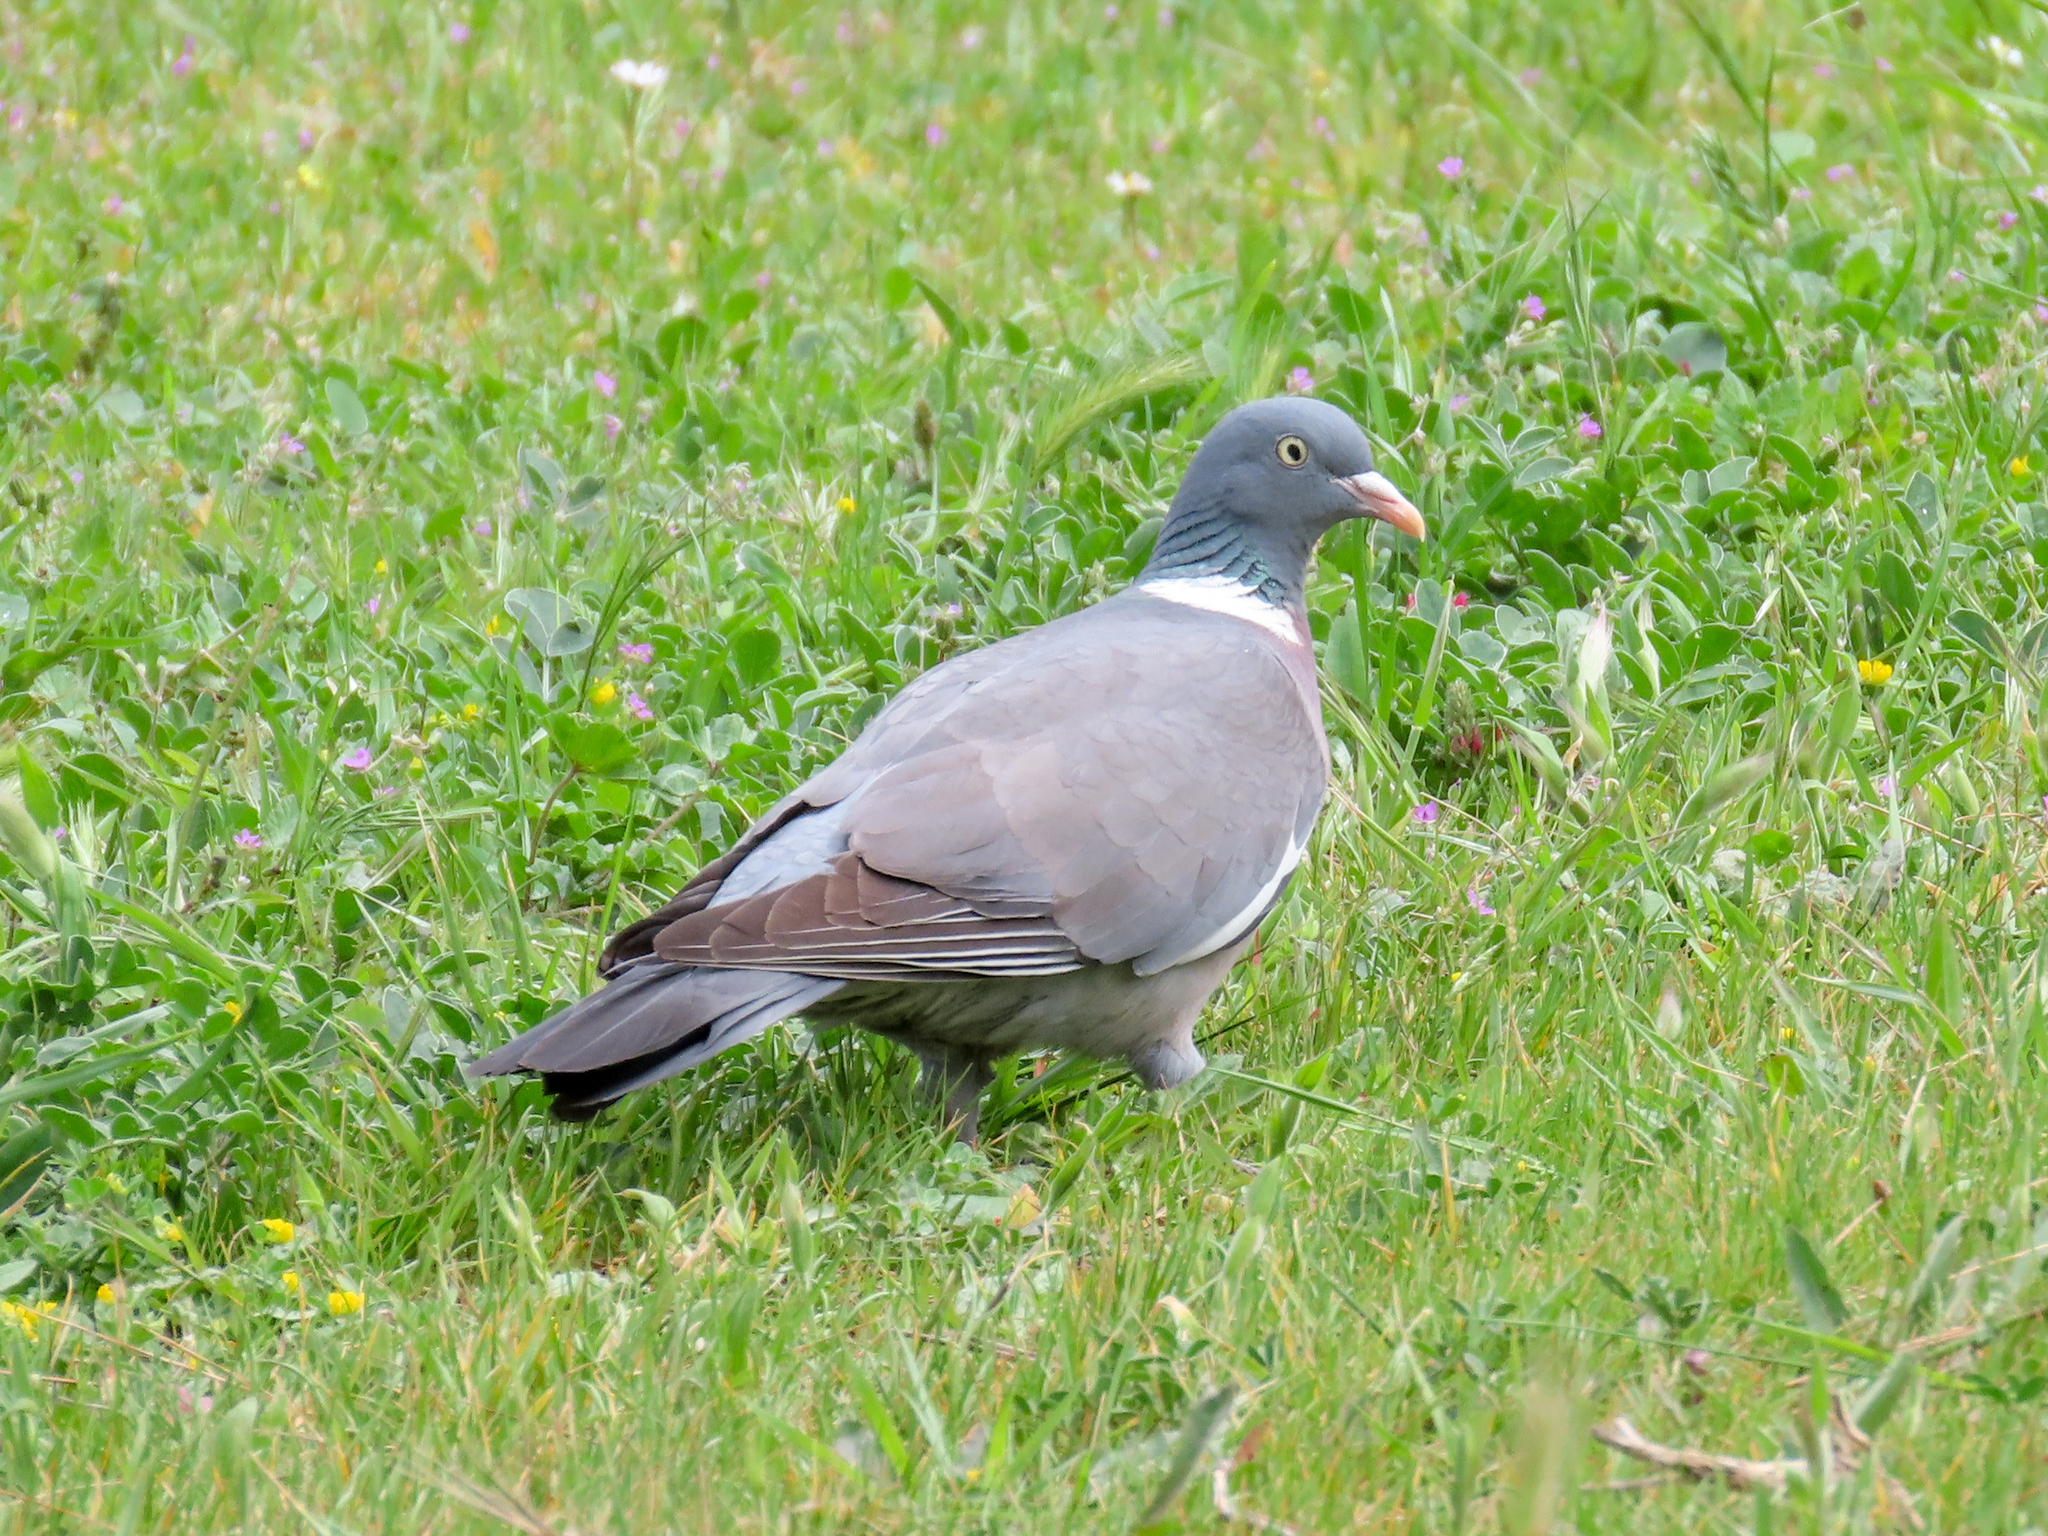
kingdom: Animalia
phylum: Chordata
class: Aves
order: Columbiformes
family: Columbidae
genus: Columba
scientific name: Columba palumbus
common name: Common wood pigeon
